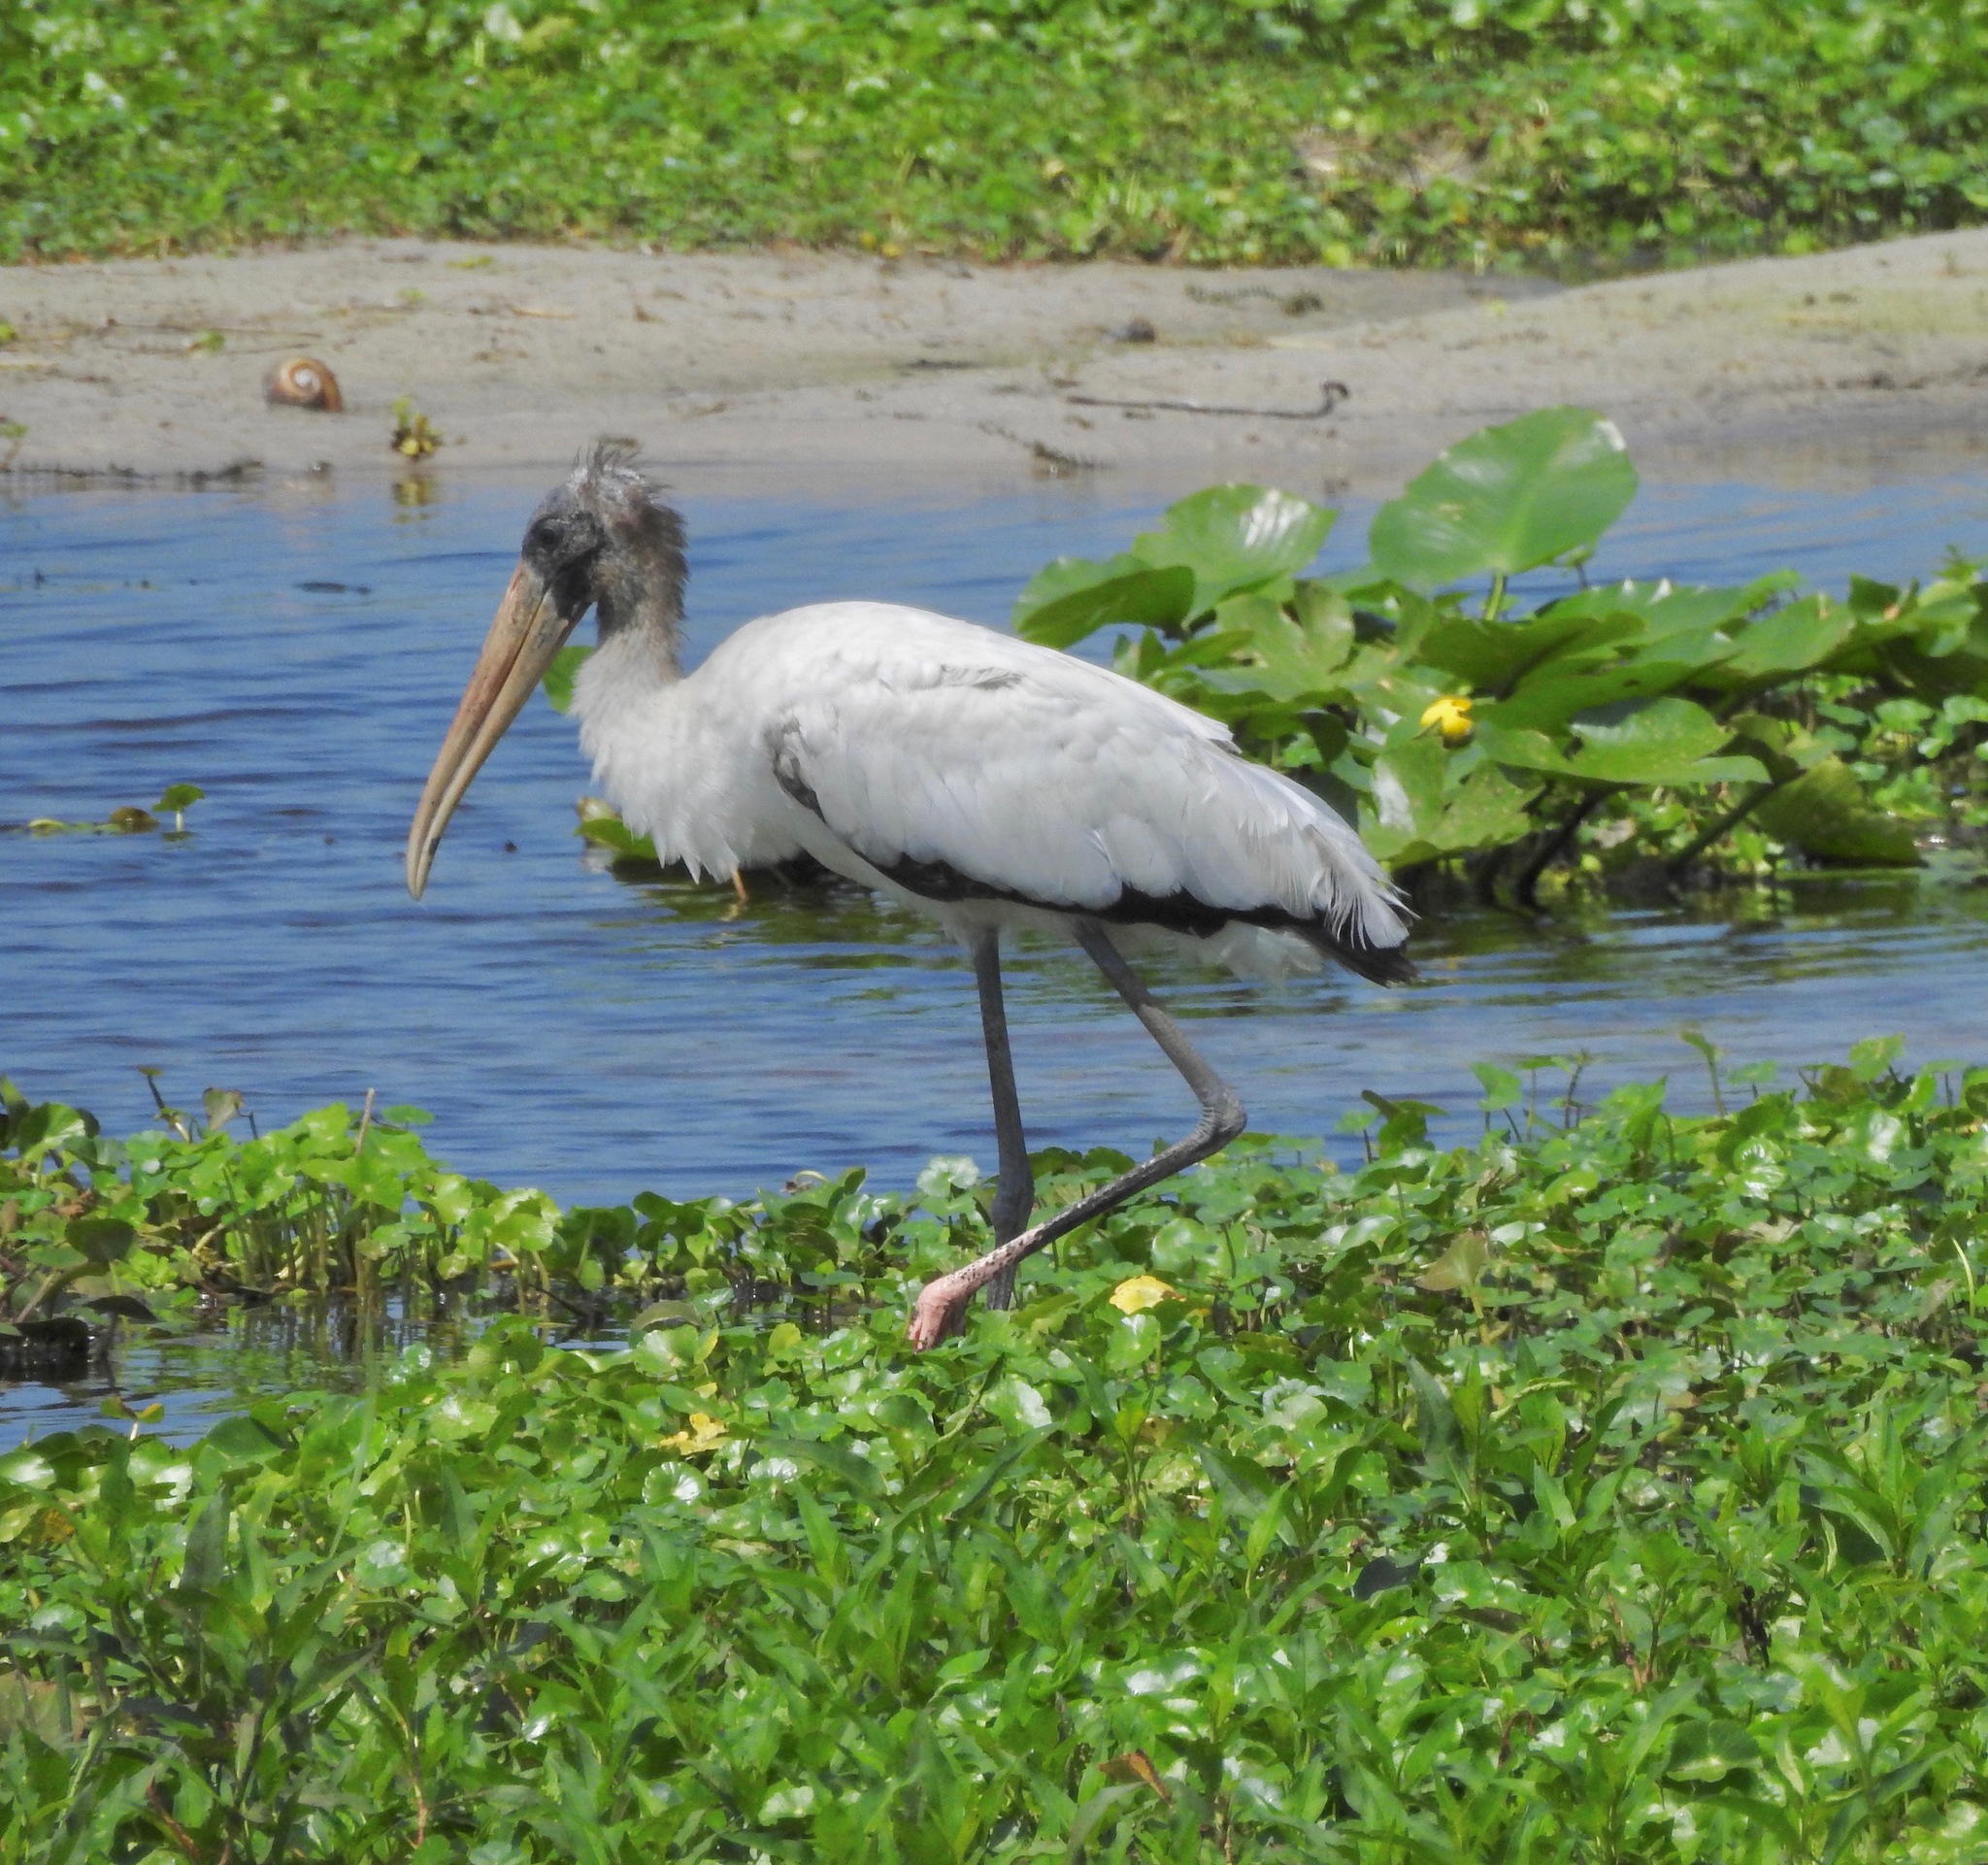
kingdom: Animalia
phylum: Chordata
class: Aves
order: Ciconiiformes
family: Ciconiidae
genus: Mycteria
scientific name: Mycteria americana
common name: Wood stork
